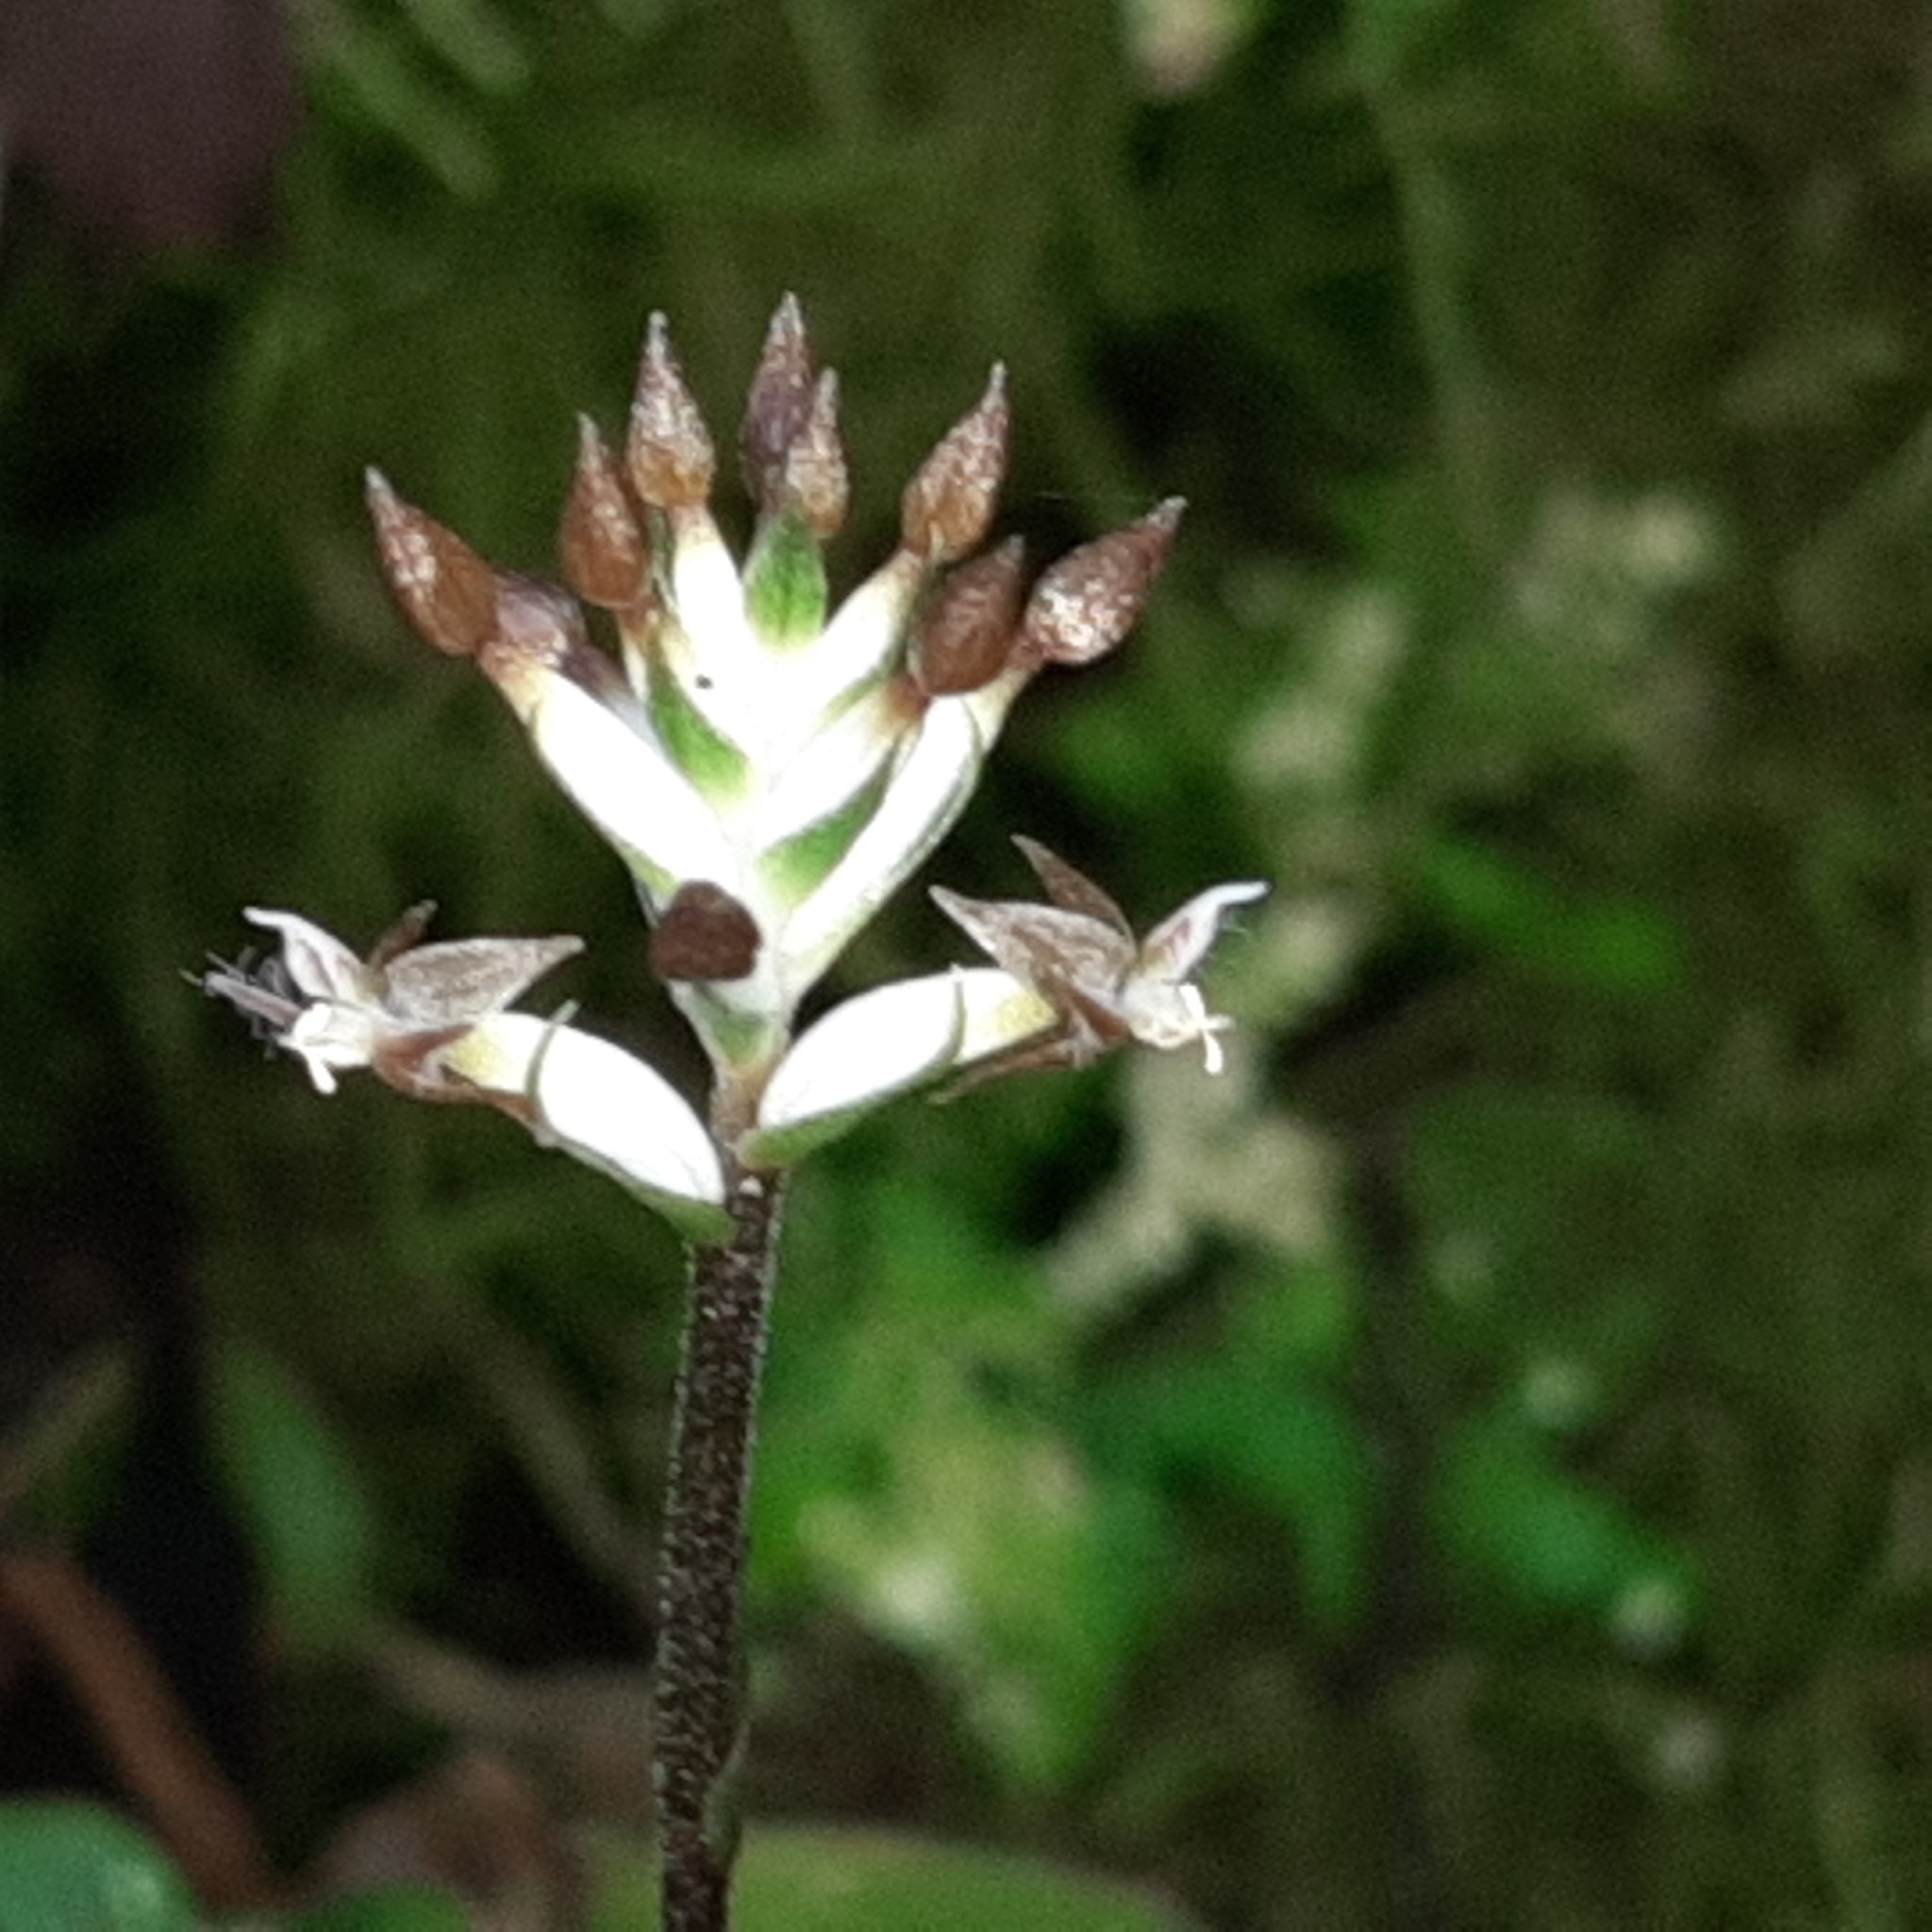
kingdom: Plantae
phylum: Tracheophyta
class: Liliopsida
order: Asparagales
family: Orchidaceae
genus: Cranichis
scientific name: Cranichis wageneri
